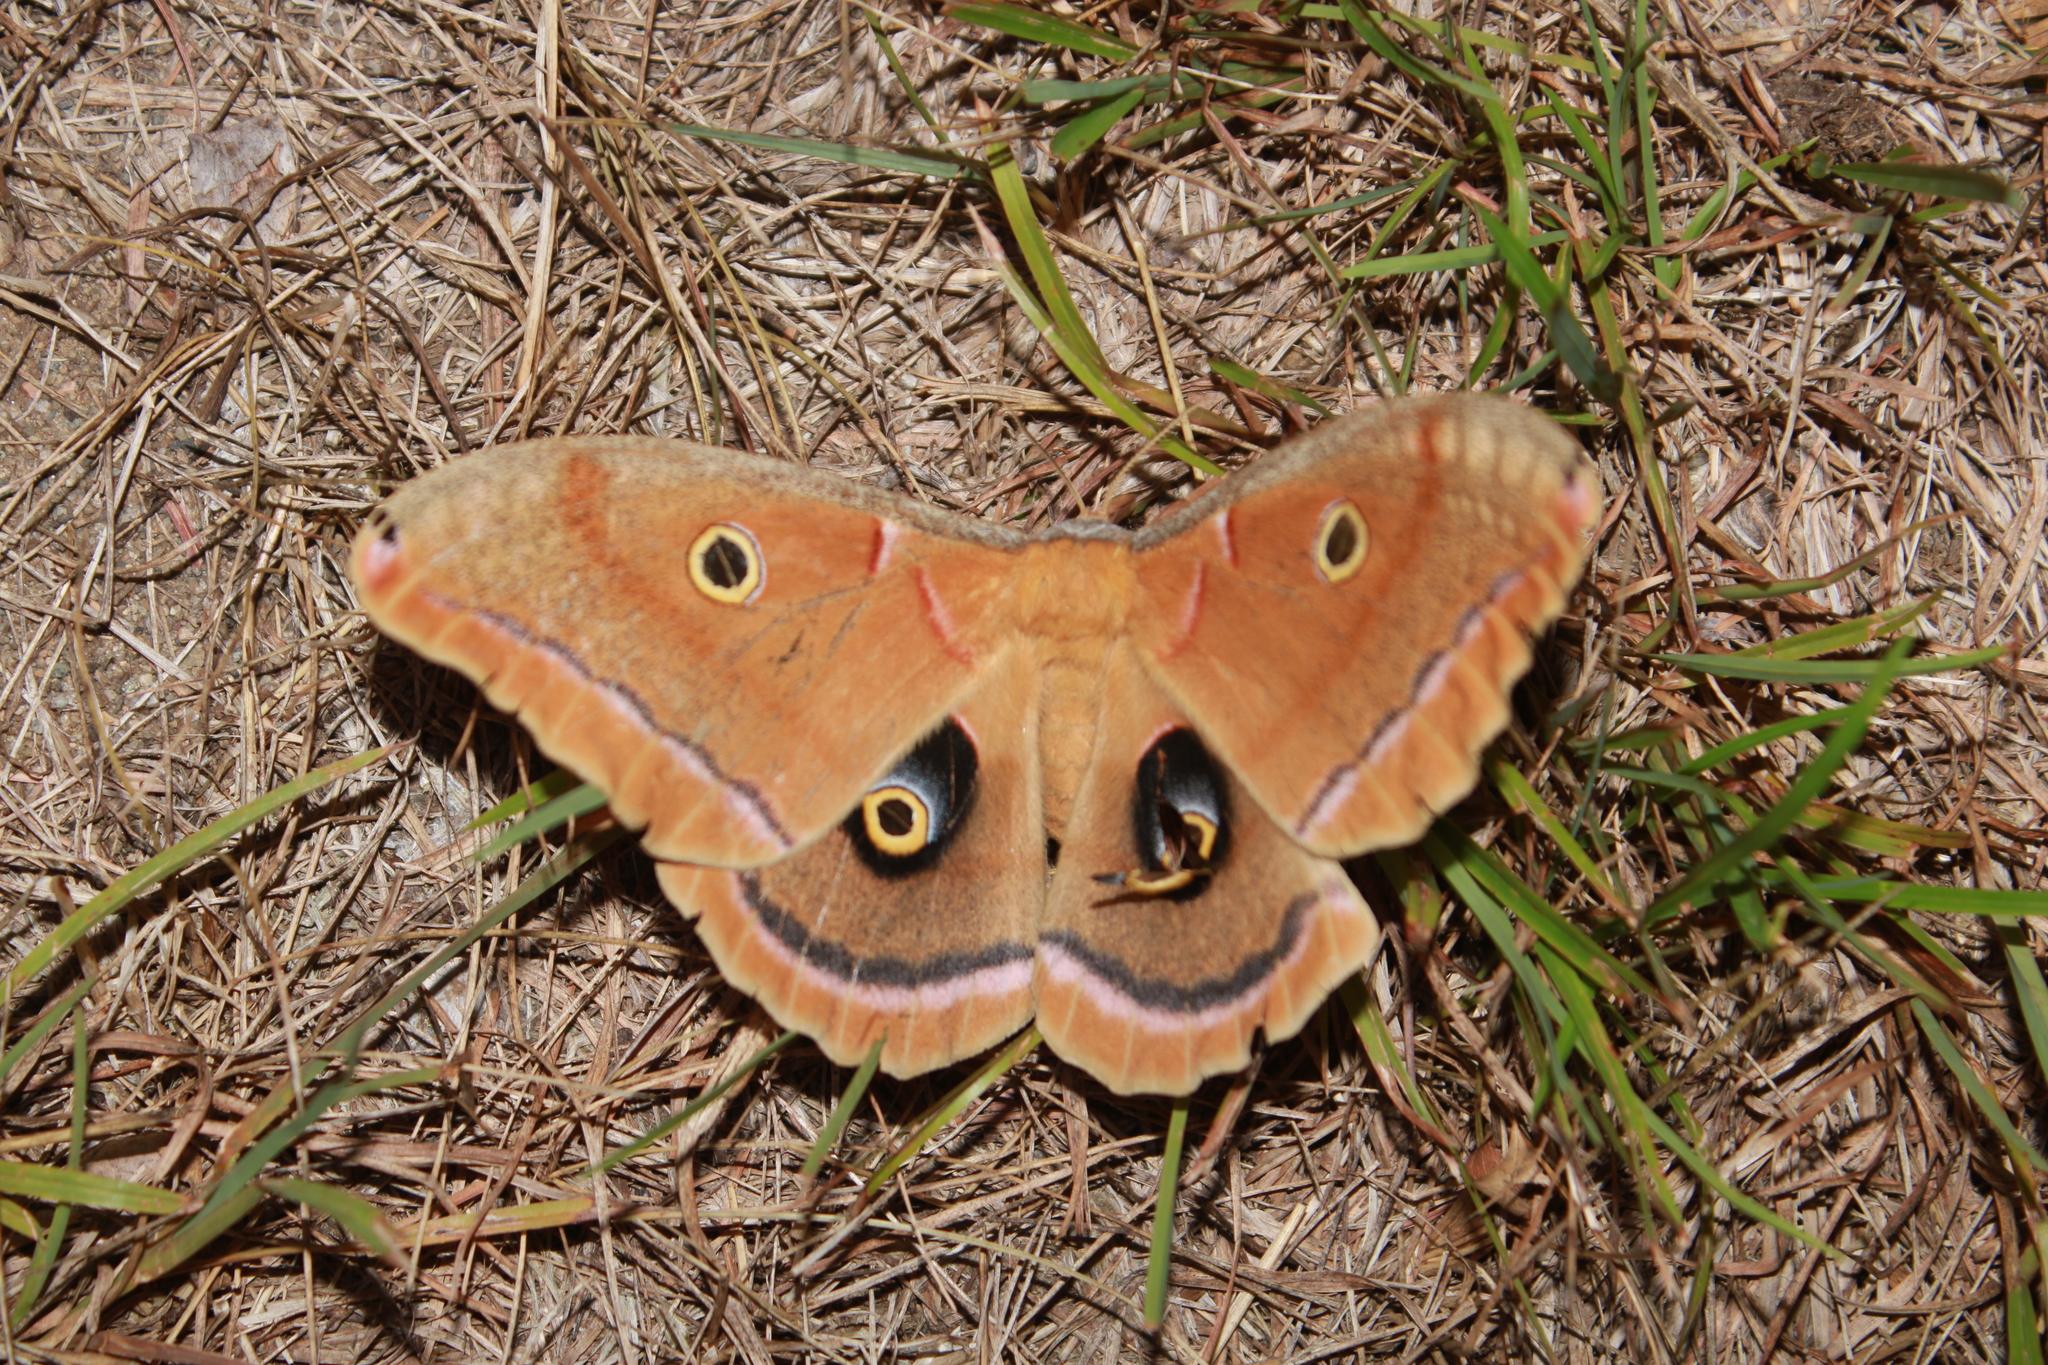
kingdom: Animalia
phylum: Arthropoda
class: Insecta
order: Lepidoptera
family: Saturniidae
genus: Antheraea
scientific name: Antheraea polyphemus
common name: Polyphemus moth
